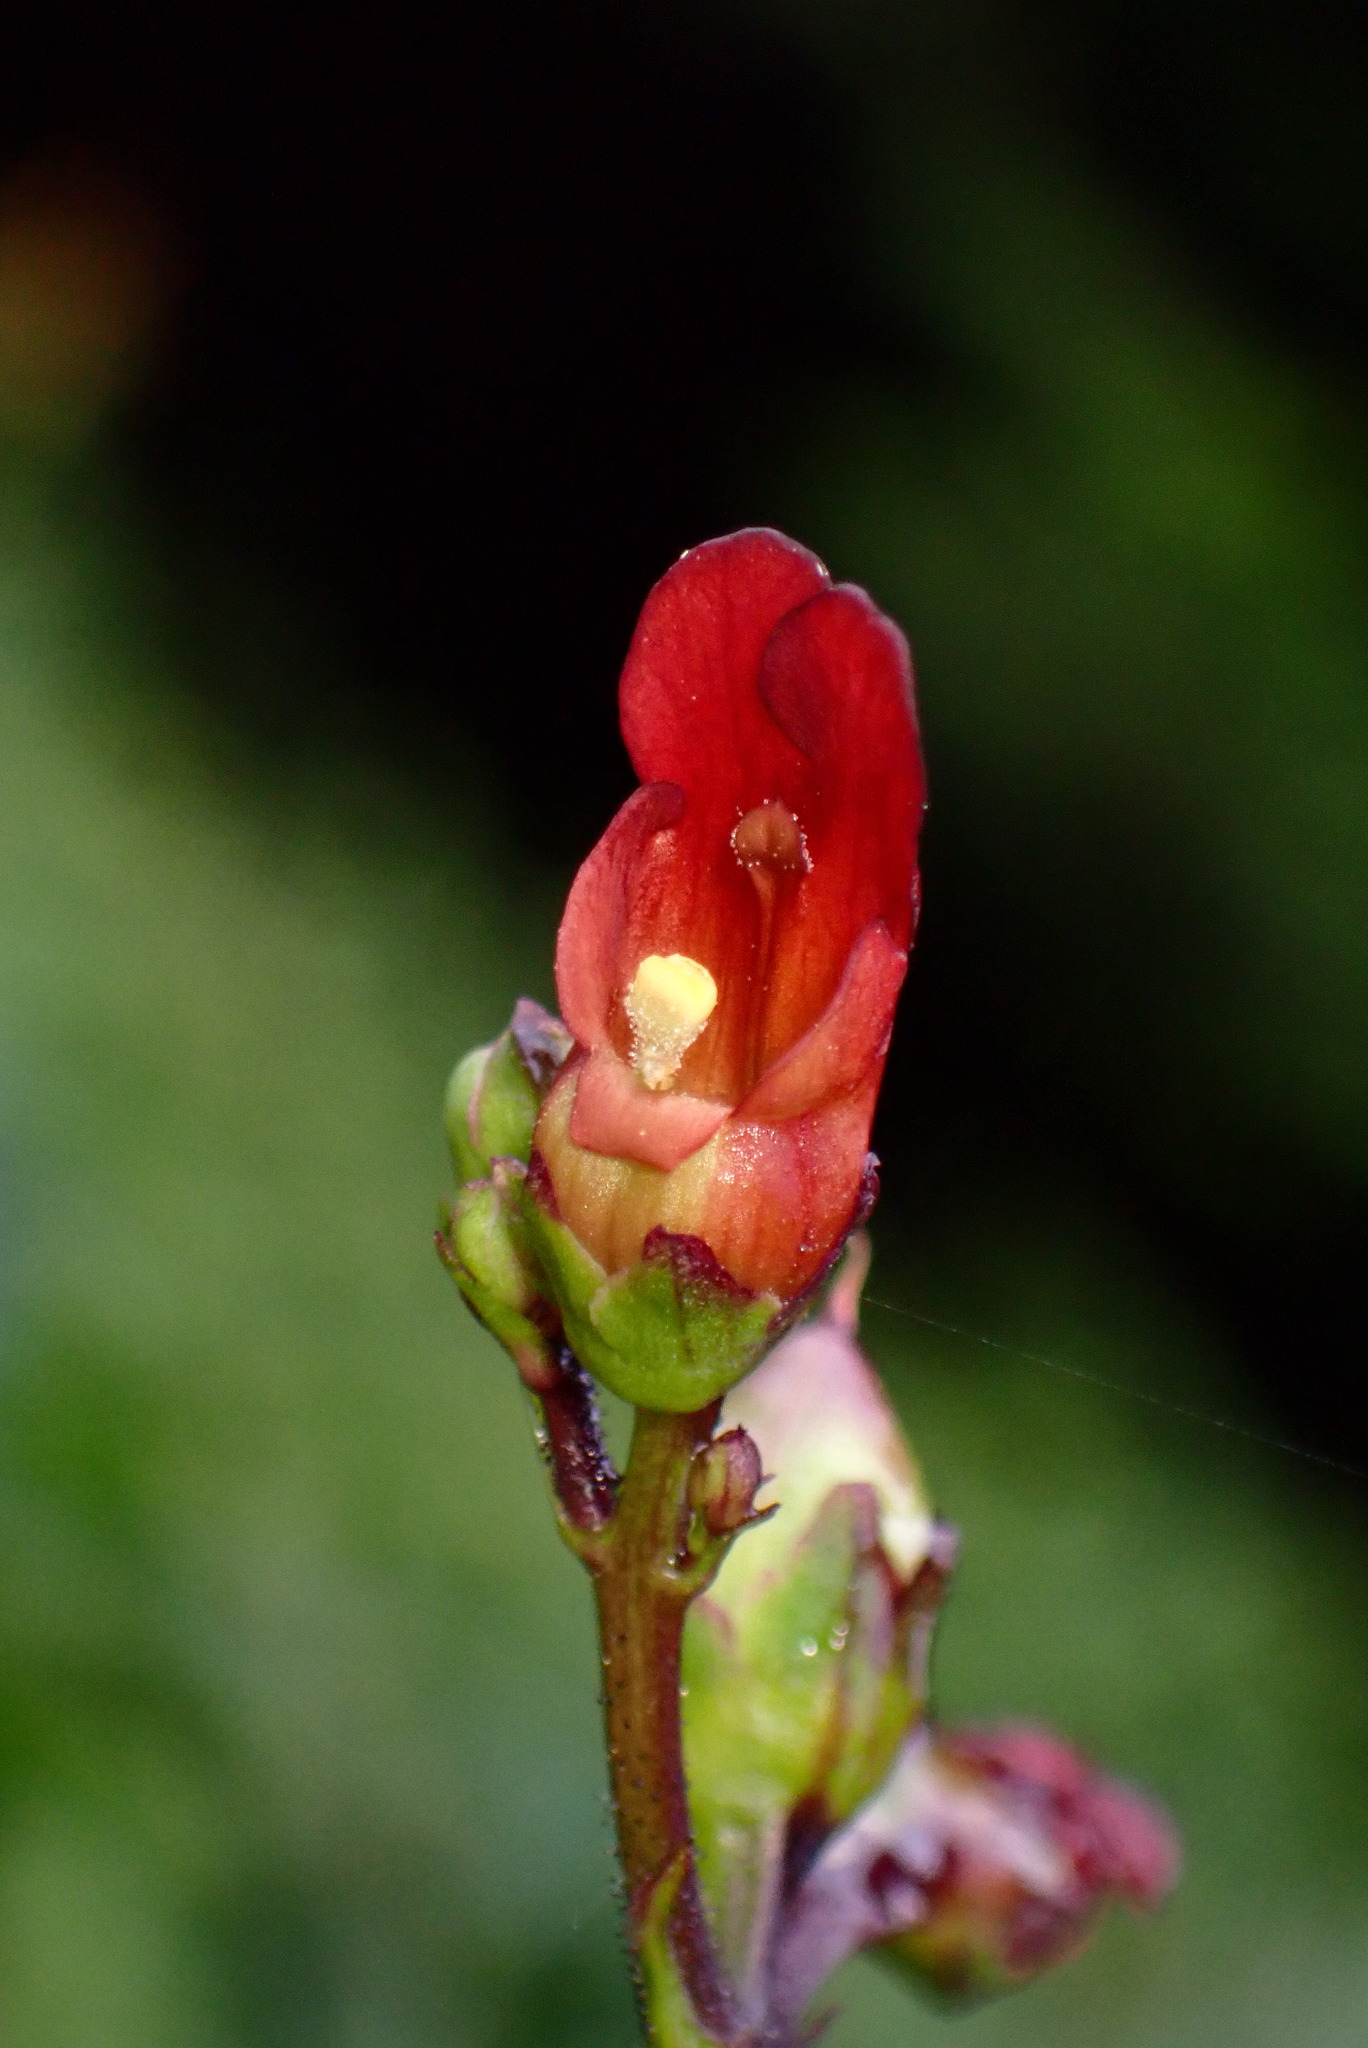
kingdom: Plantae
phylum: Tracheophyta
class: Magnoliopsida
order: Lamiales
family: Scrophulariaceae
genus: Scrophularia
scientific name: Scrophularia californica
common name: California figwort
